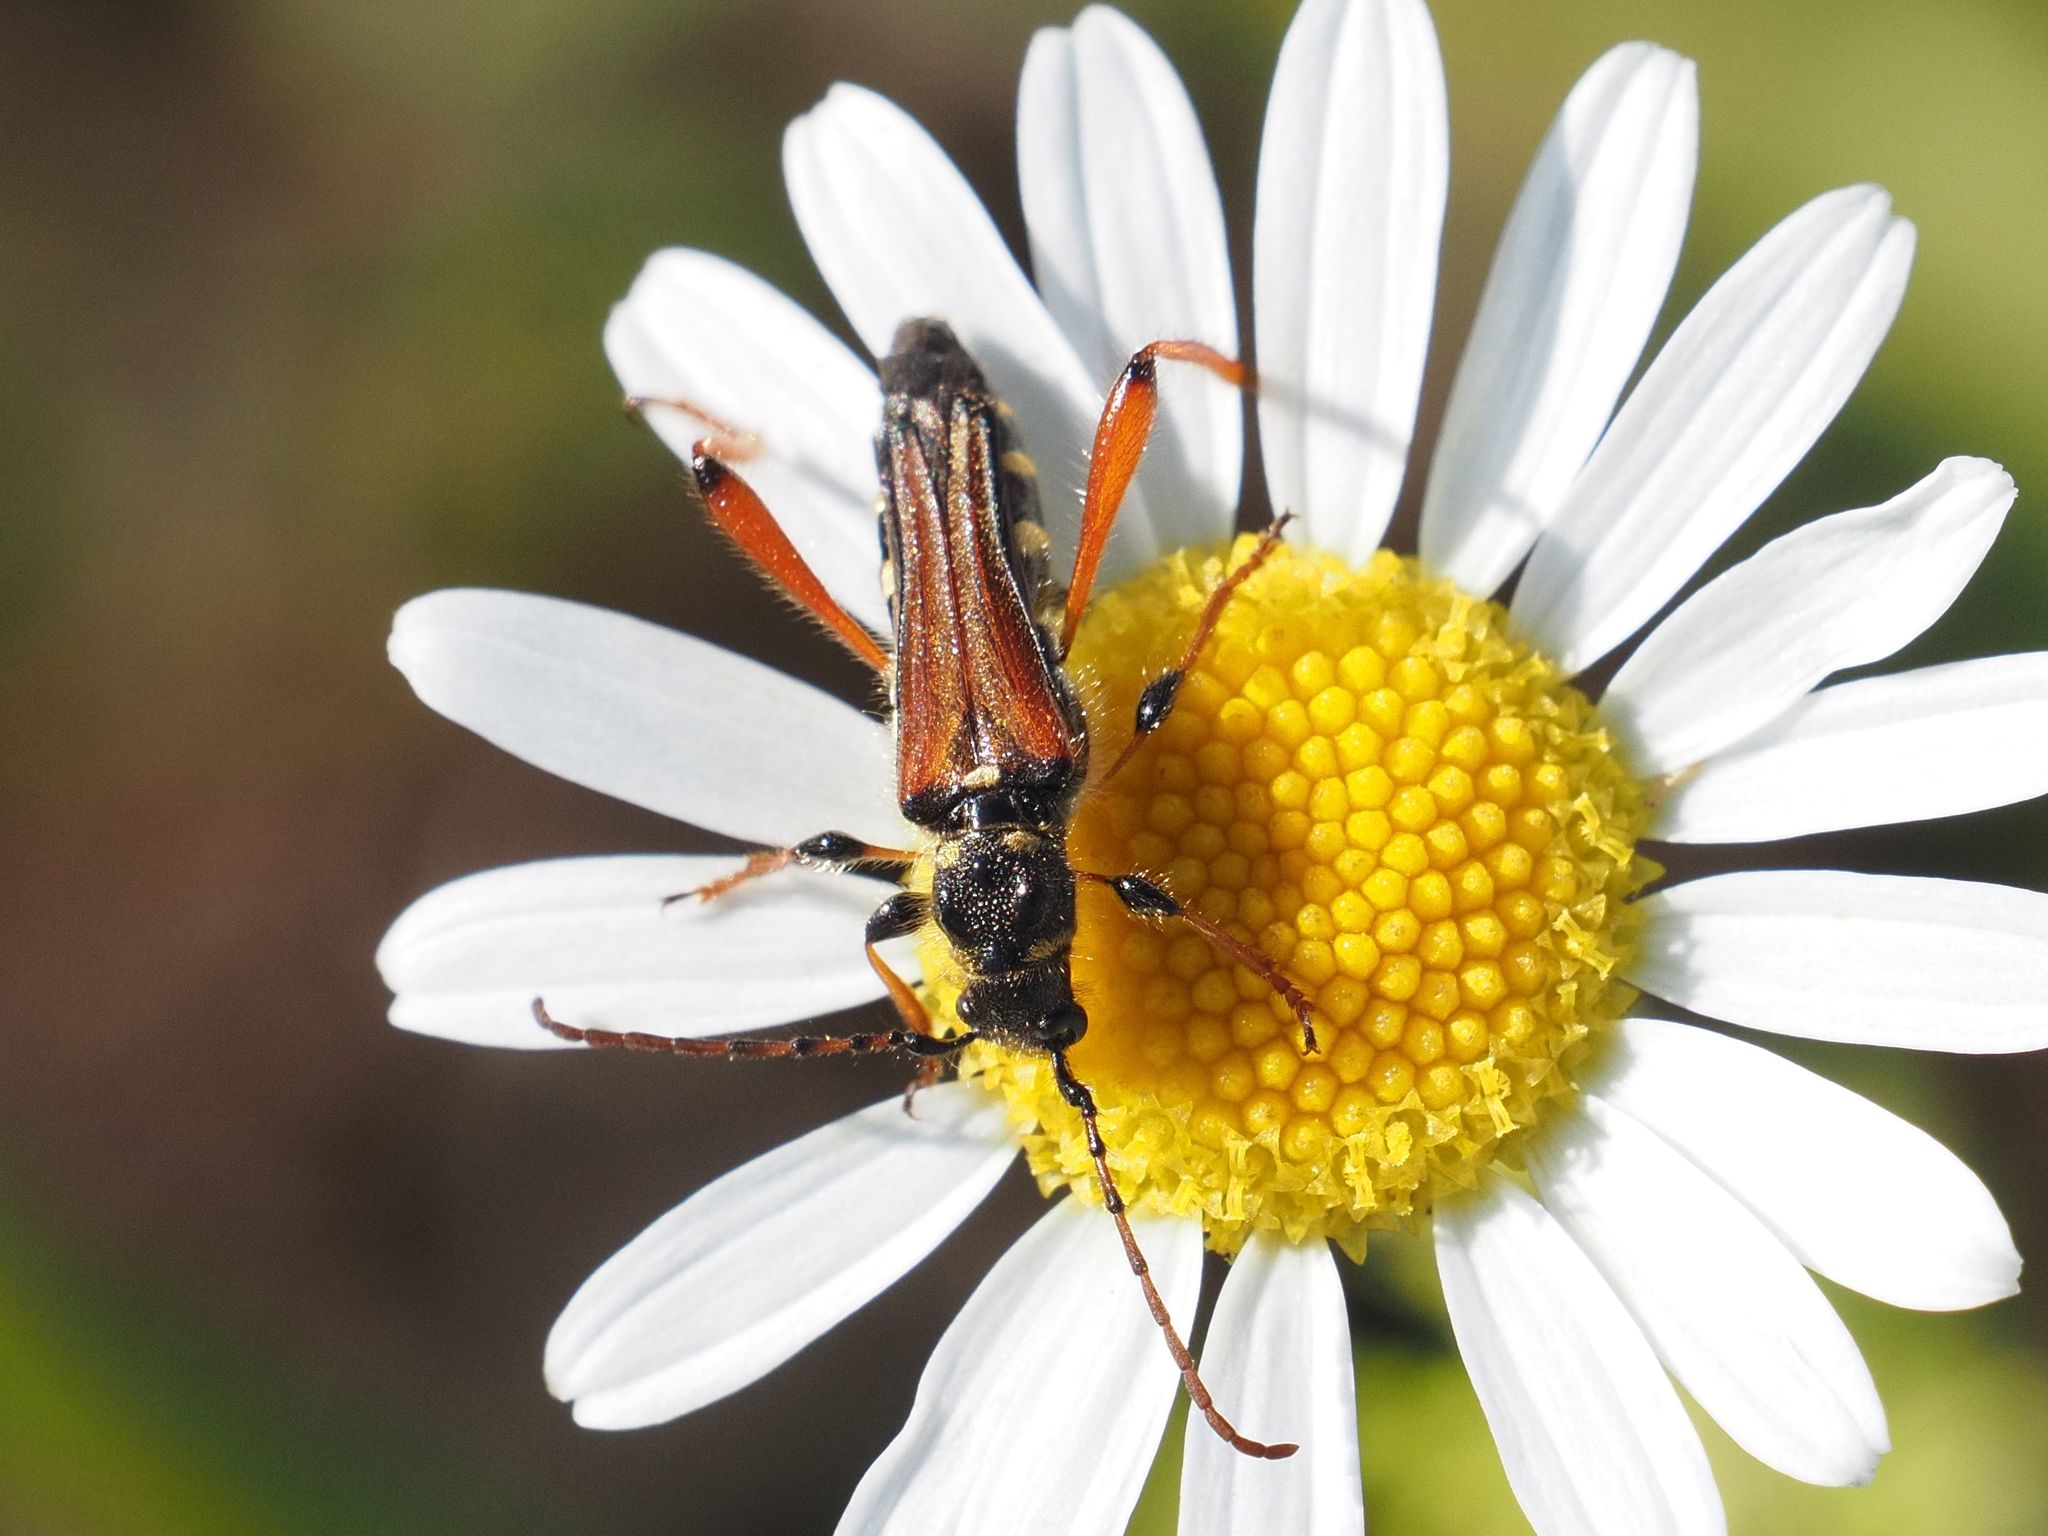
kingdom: Animalia
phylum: Arthropoda
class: Insecta
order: Coleoptera
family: Cerambycidae
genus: Stenopterus
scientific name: Stenopterus rufus
